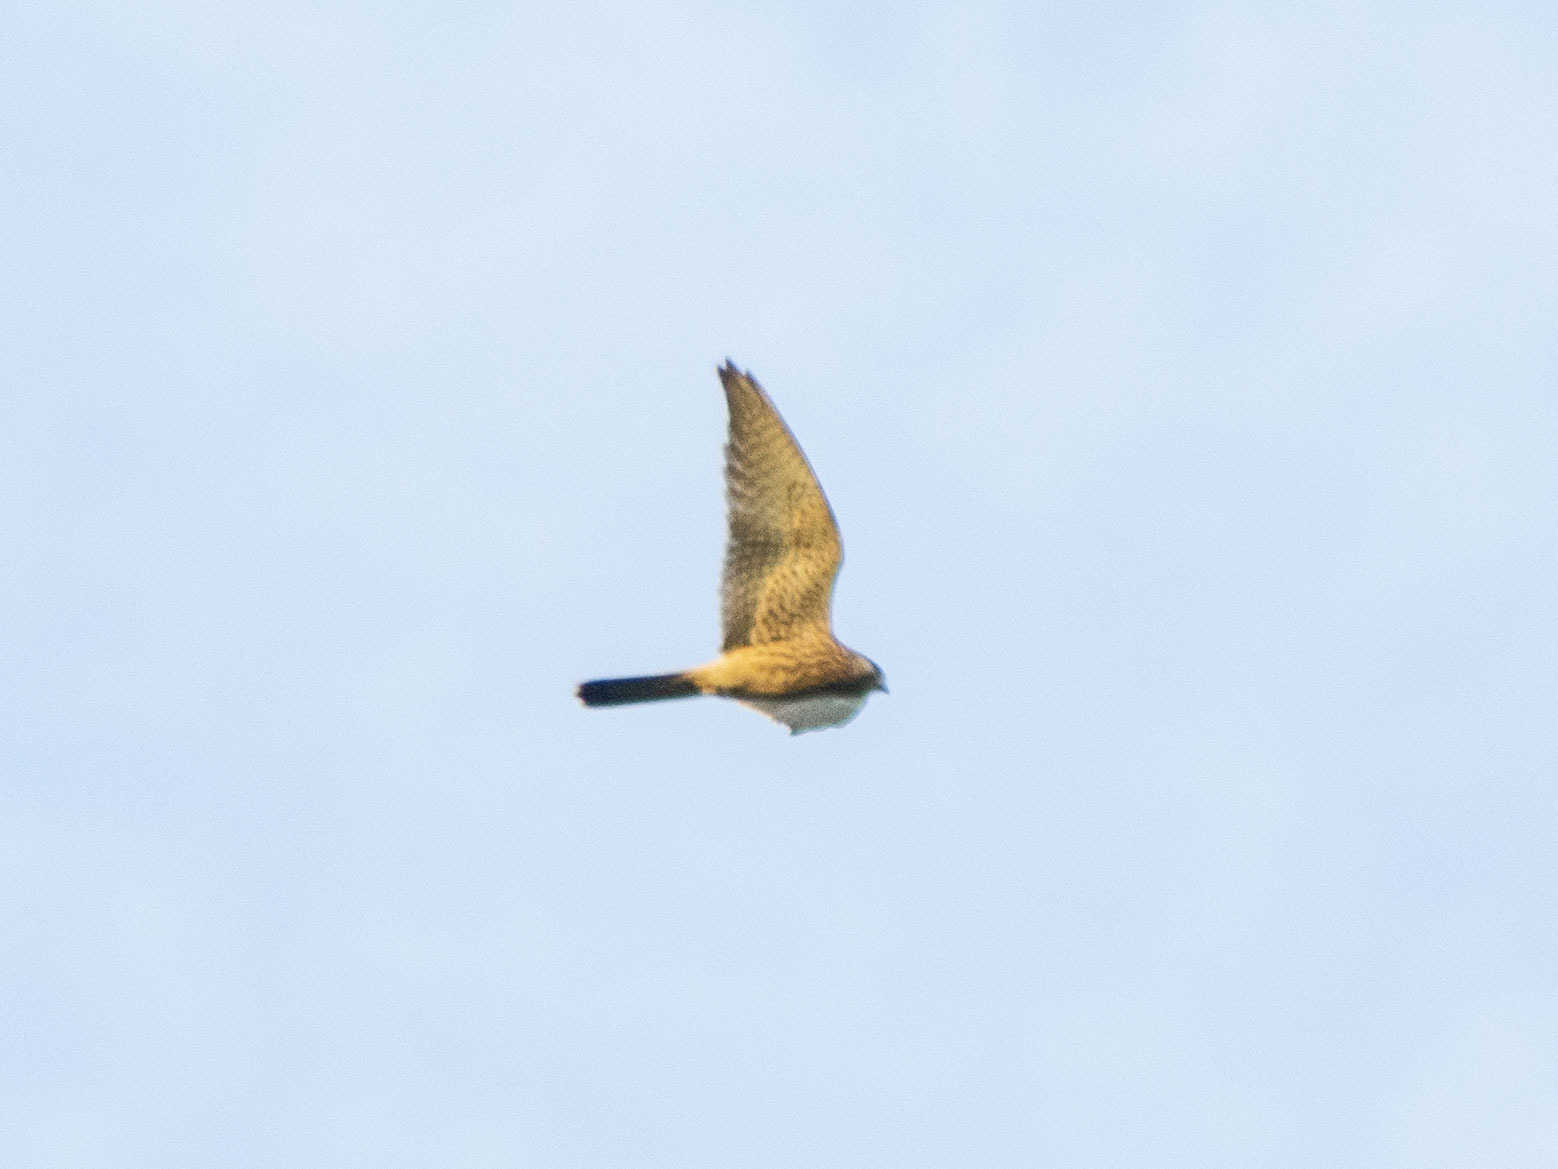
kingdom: Animalia
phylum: Chordata
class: Aves
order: Falconiformes
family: Falconidae
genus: Falco
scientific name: Falco tinnunculus
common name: Common kestrel
